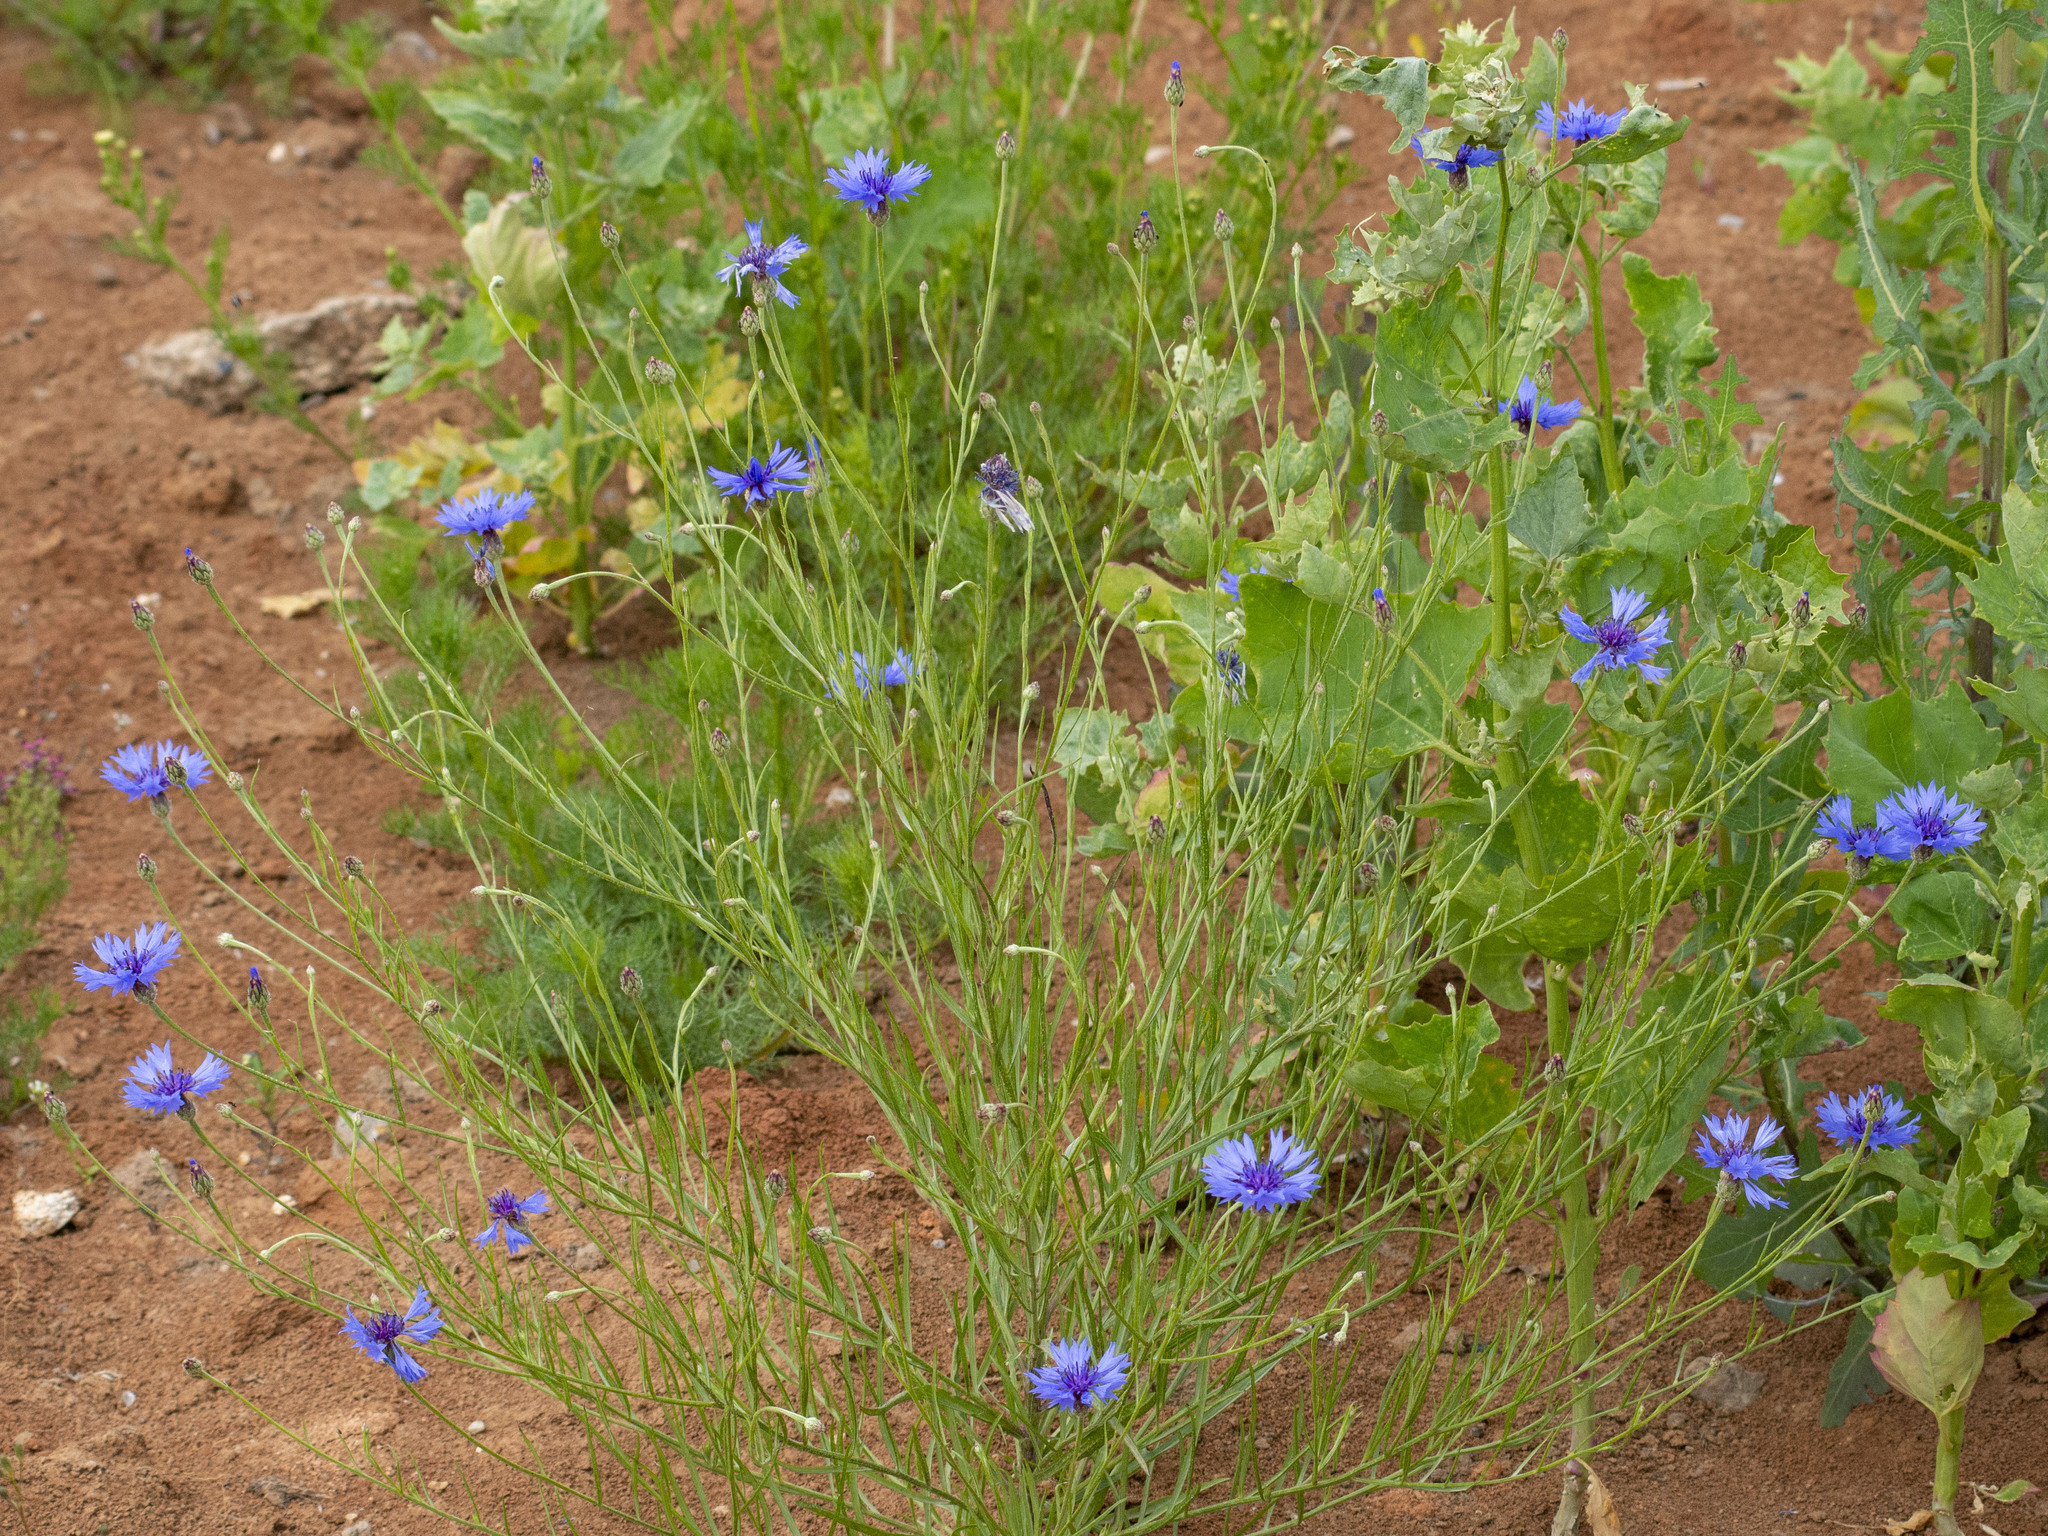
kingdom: Plantae
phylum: Tracheophyta
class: Magnoliopsida
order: Asterales
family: Asteraceae
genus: Centaurea
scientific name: Centaurea cyanus
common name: Cornflower
